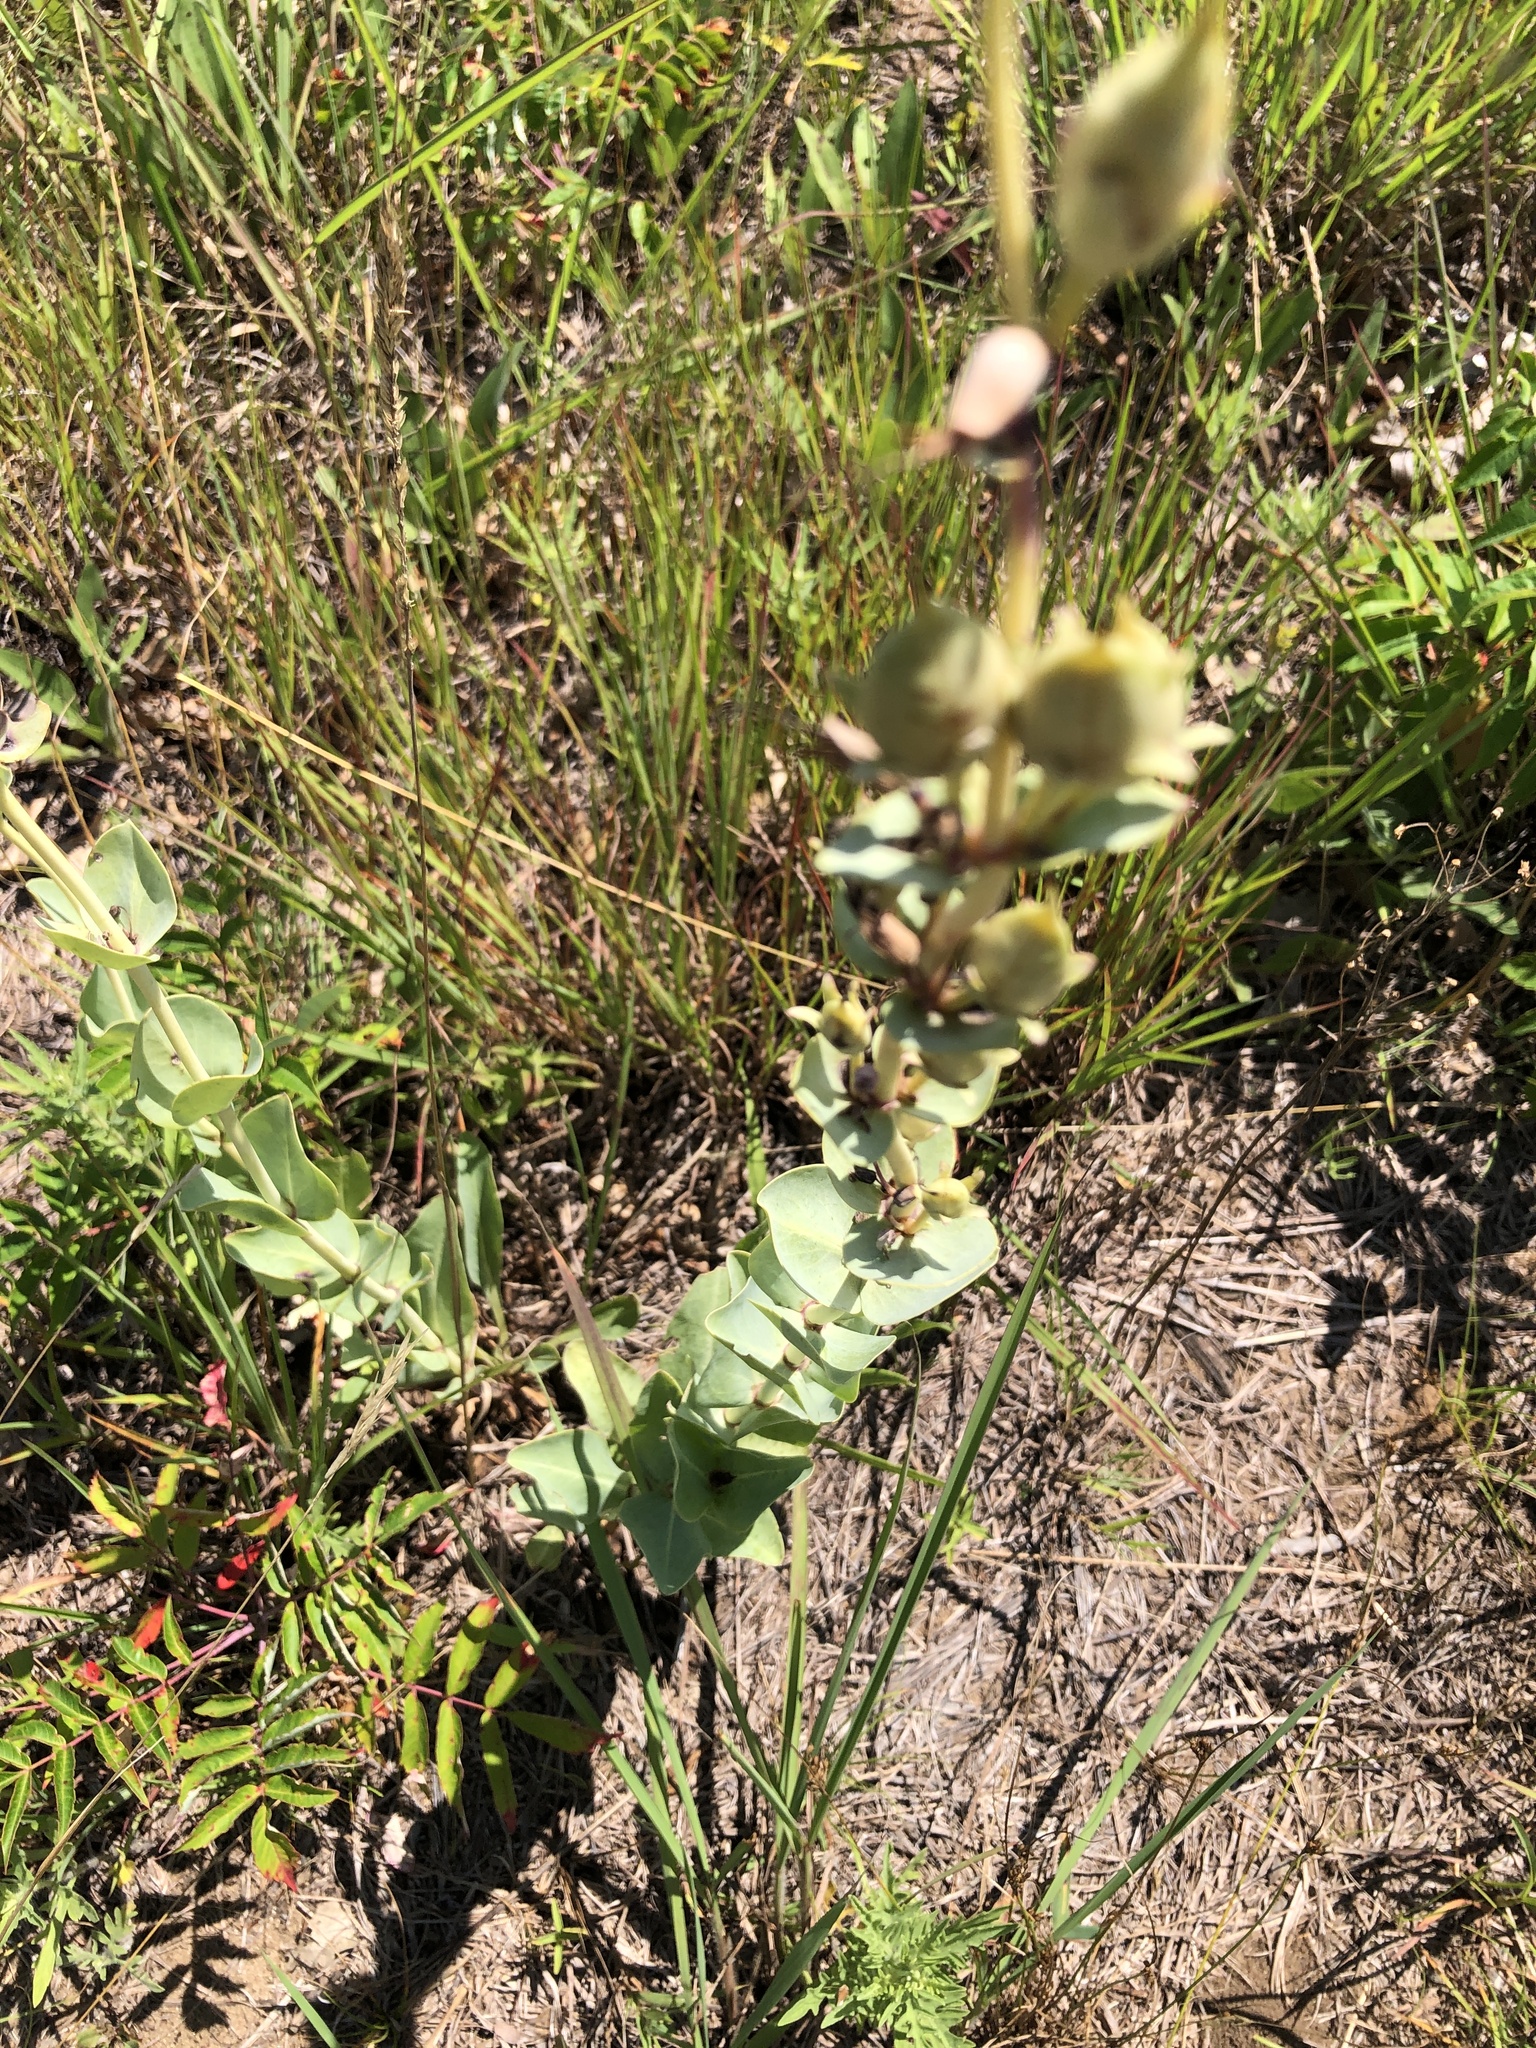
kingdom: Plantae
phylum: Tracheophyta
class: Magnoliopsida
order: Lamiales
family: Plantaginaceae
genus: Penstemon
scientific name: Penstemon
